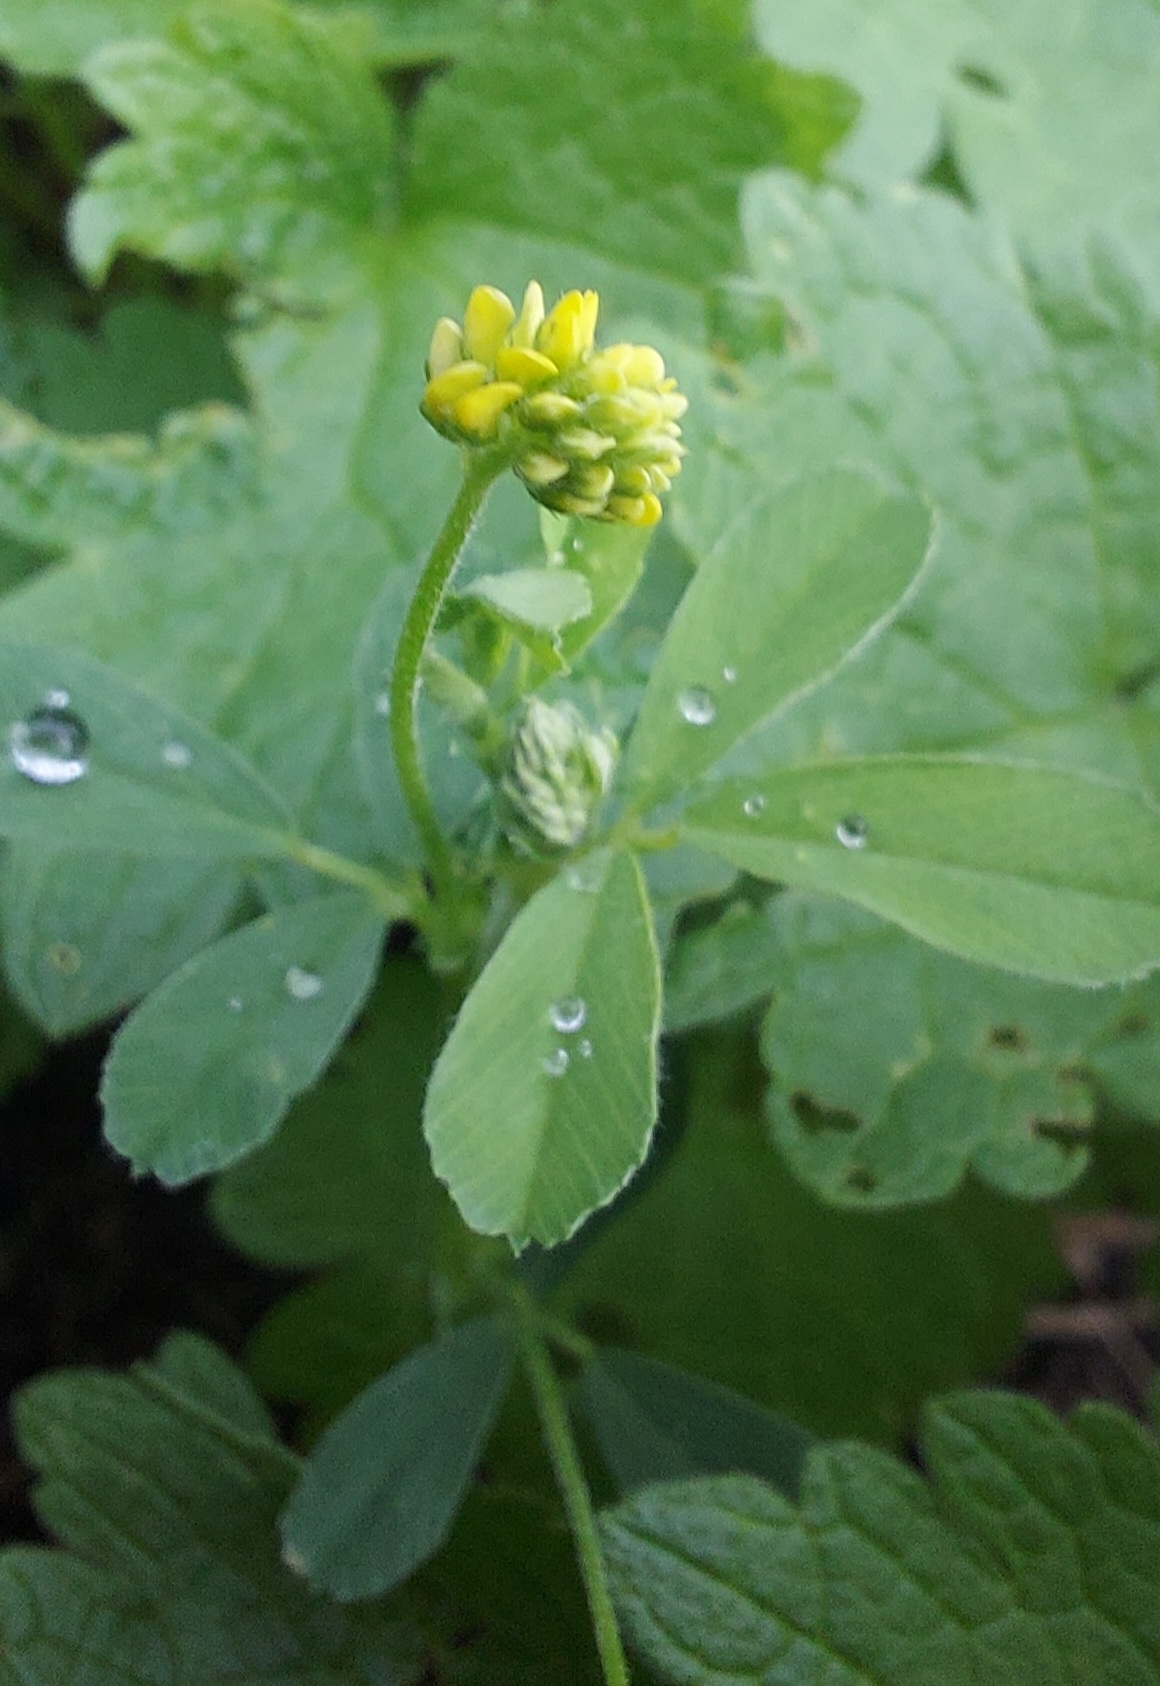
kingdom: Plantae
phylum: Tracheophyta
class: Magnoliopsida
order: Fabales
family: Fabaceae
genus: Medicago
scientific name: Medicago lupulina
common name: Black medick
